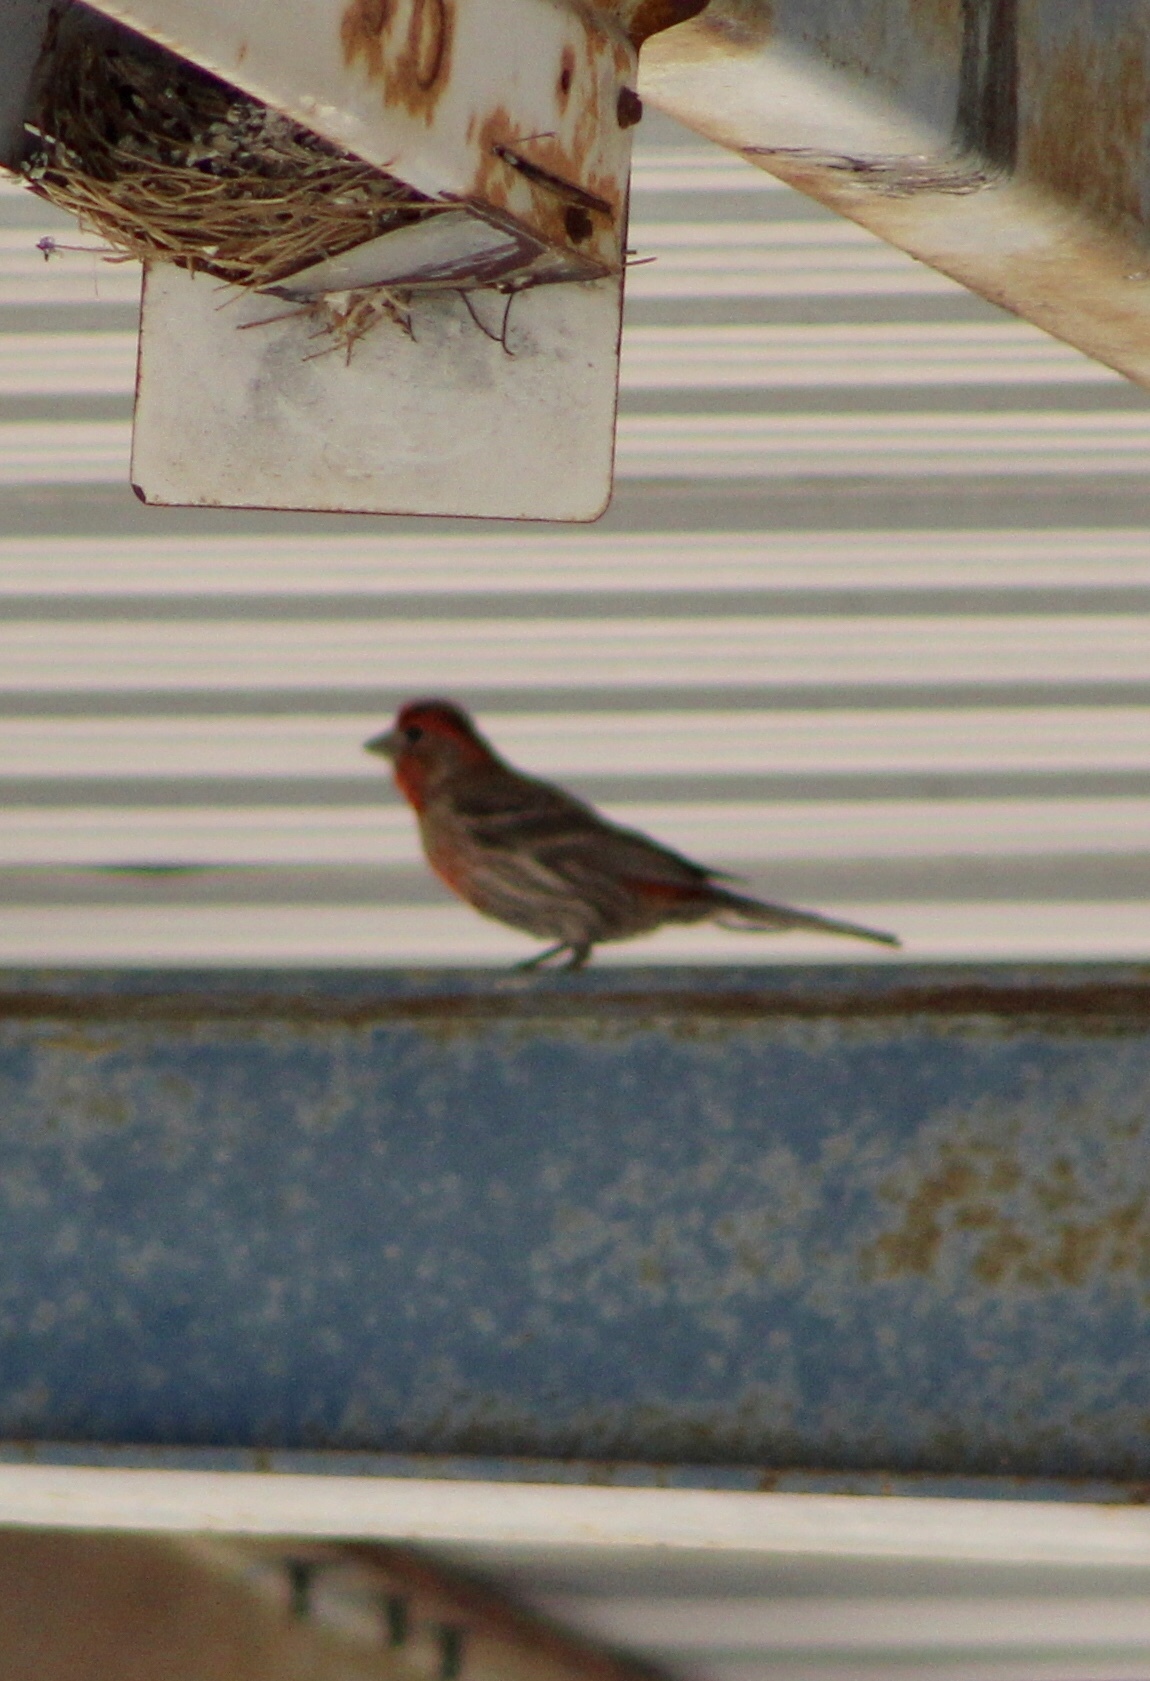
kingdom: Animalia
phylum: Chordata
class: Aves
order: Passeriformes
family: Fringillidae
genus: Haemorhous
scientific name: Haemorhous mexicanus
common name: House finch
